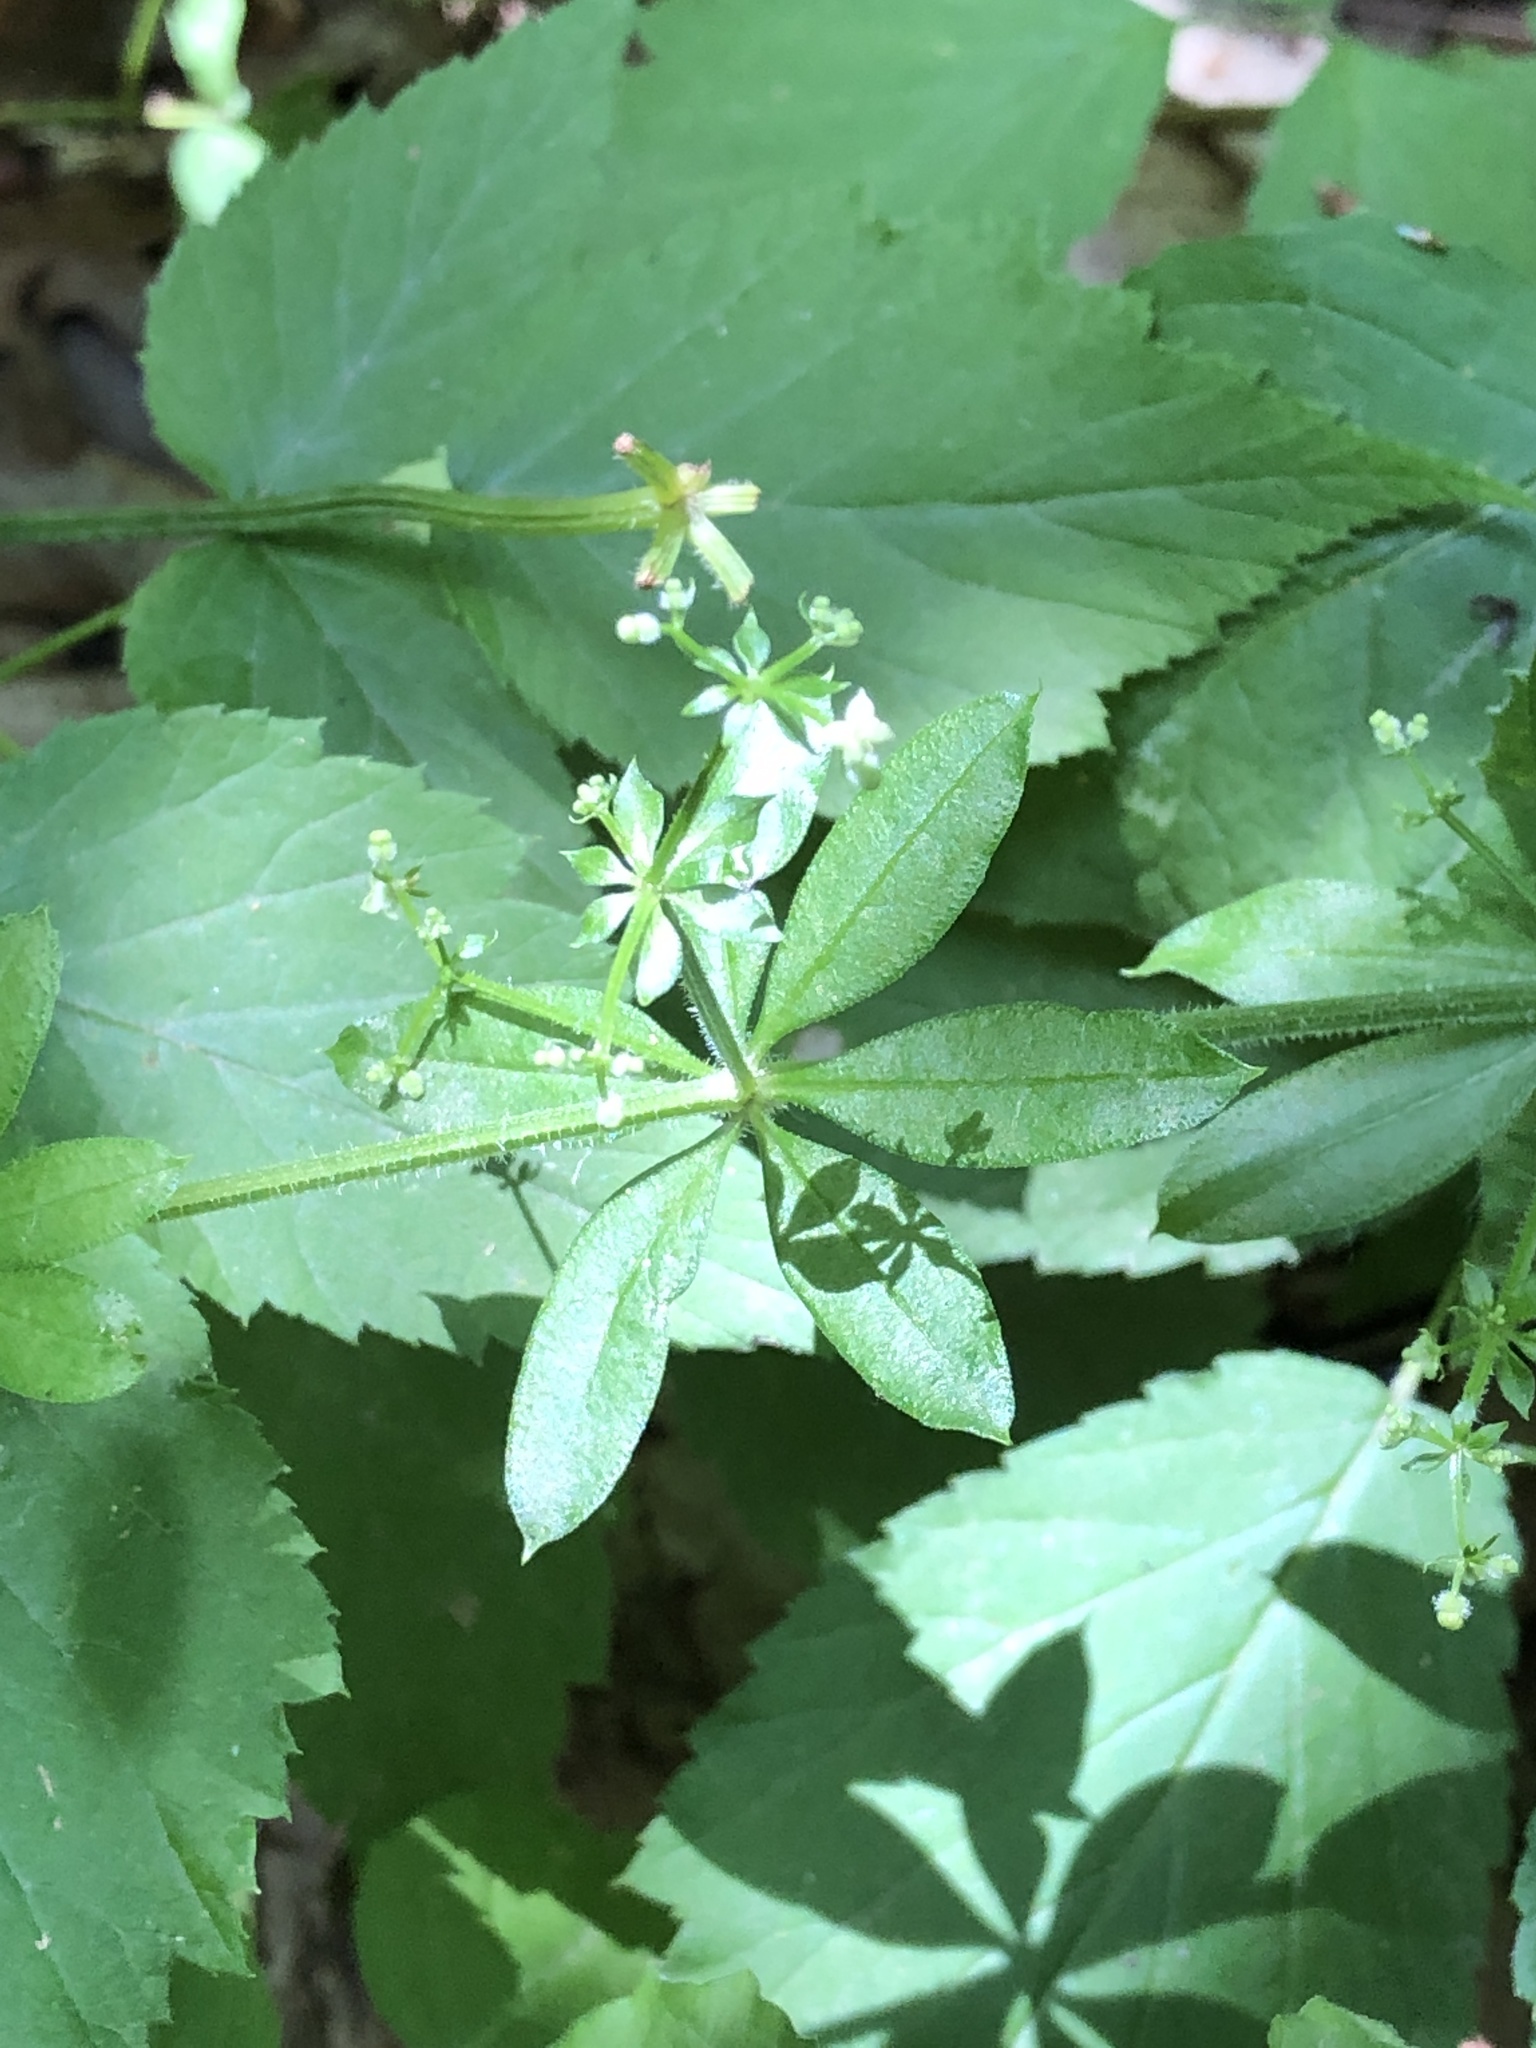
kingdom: Plantae
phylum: Tracheophyta
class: Magnoliopsida
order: Gentianales
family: Rubiaceae
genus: Galium
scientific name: Galium triflorum
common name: Fragrant bedstraw
